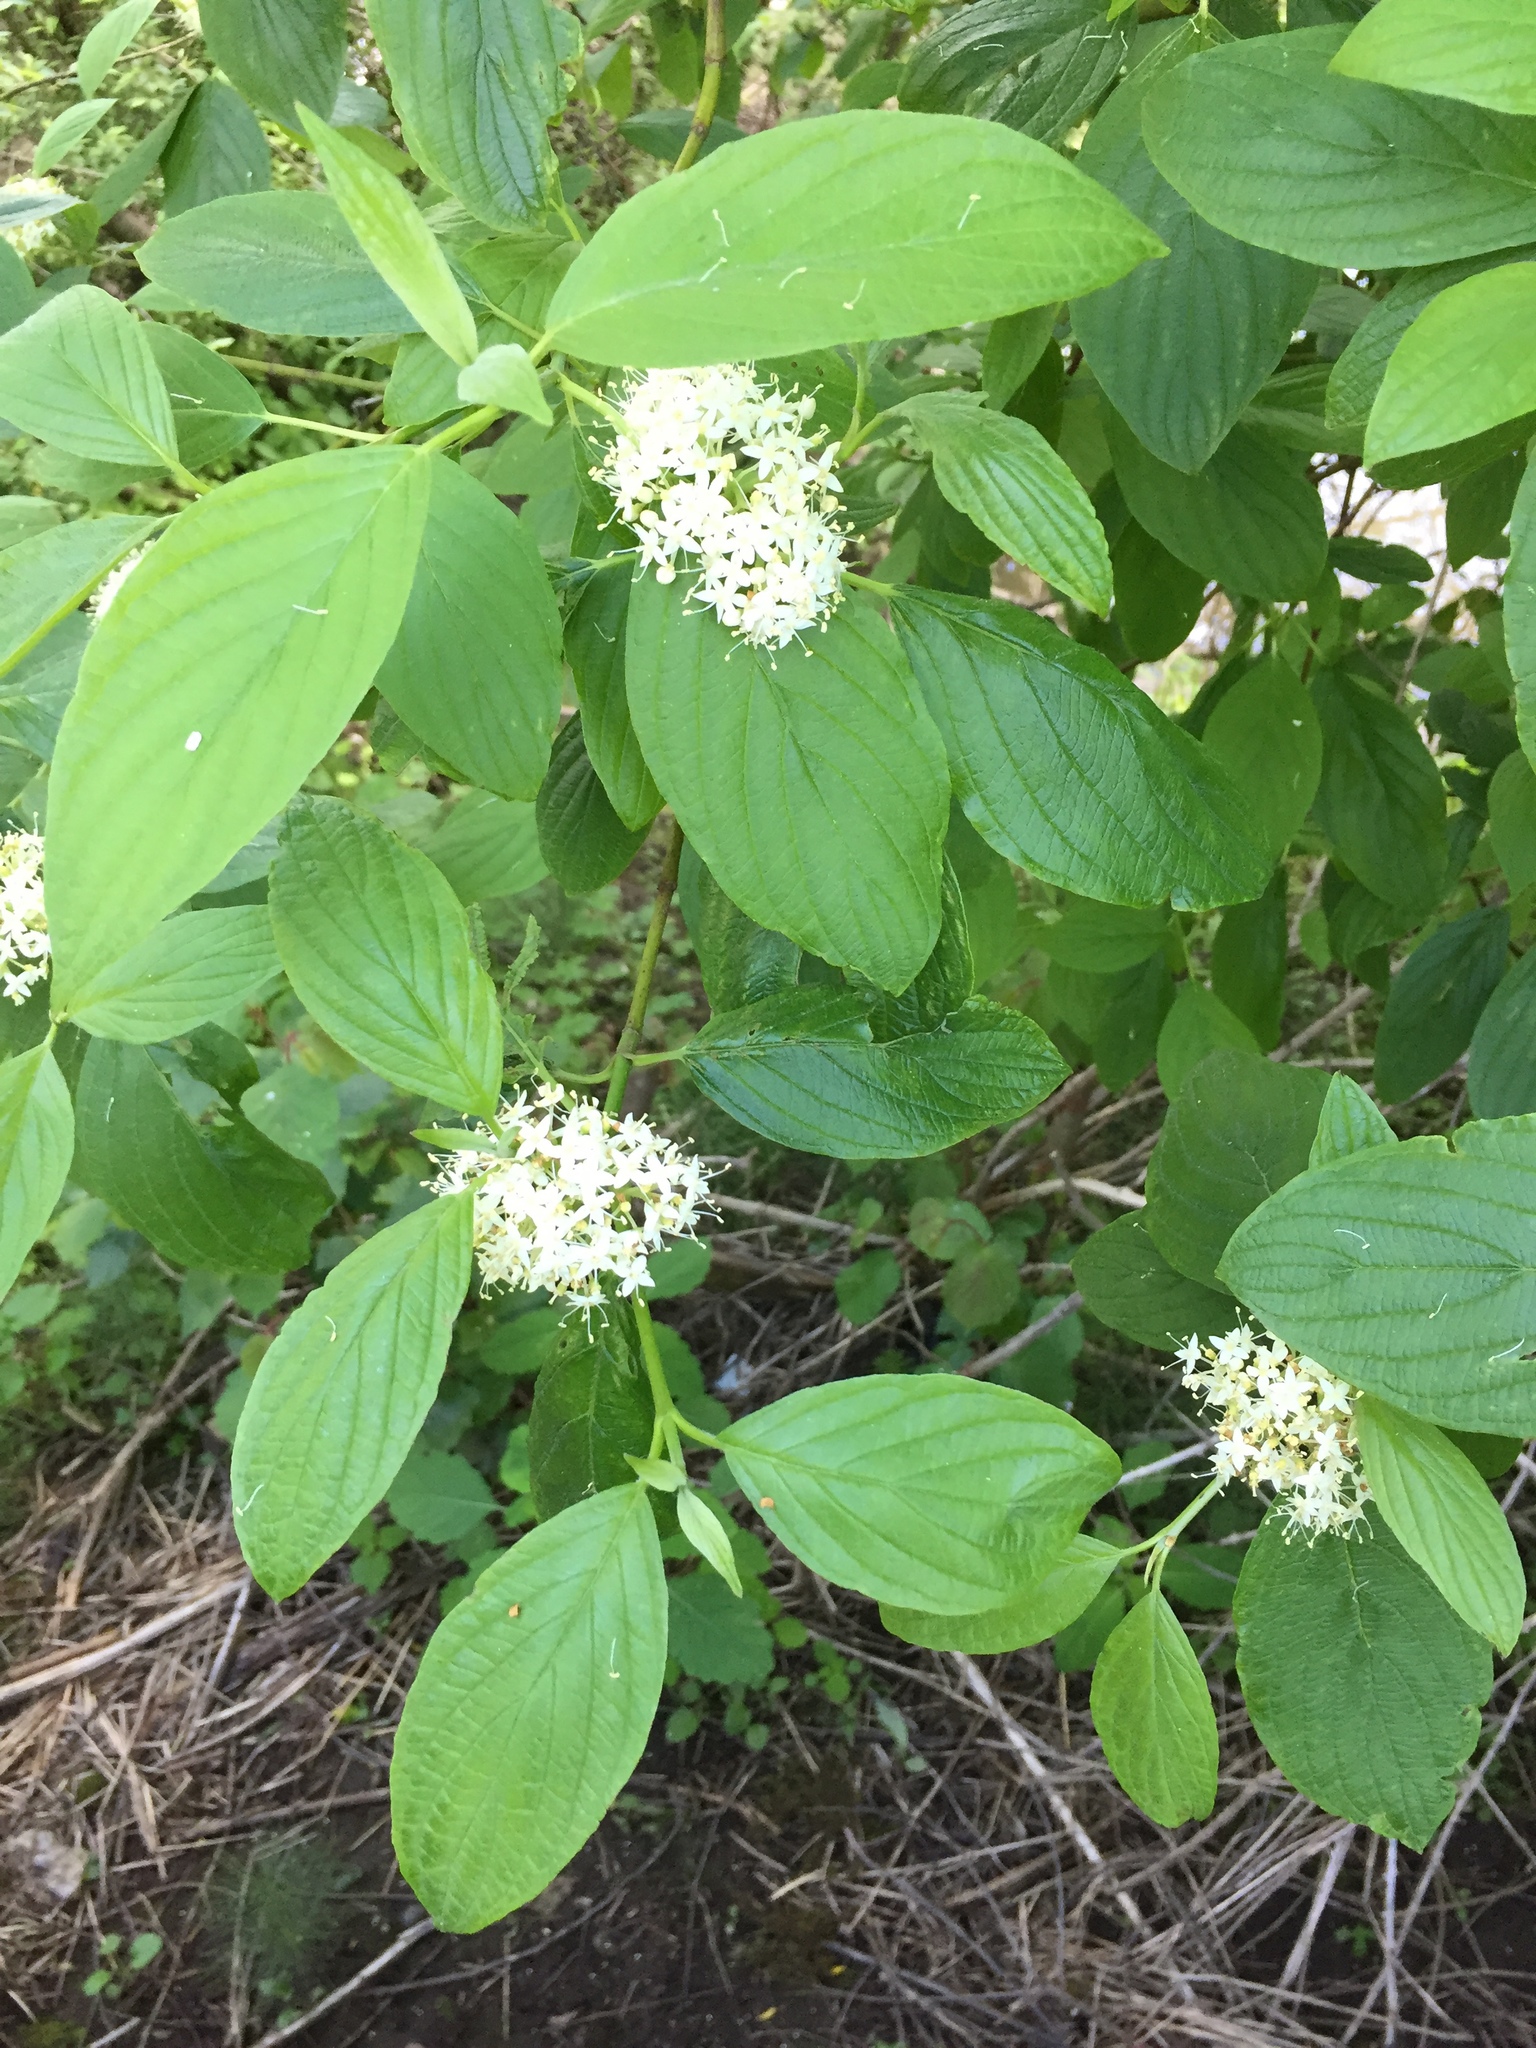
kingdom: Plantae
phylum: Tracheophyta
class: Magnoliopsida
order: Cornales
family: Cornaceae
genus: Cornus
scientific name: Cornus sericea
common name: Red-osier dogwood
